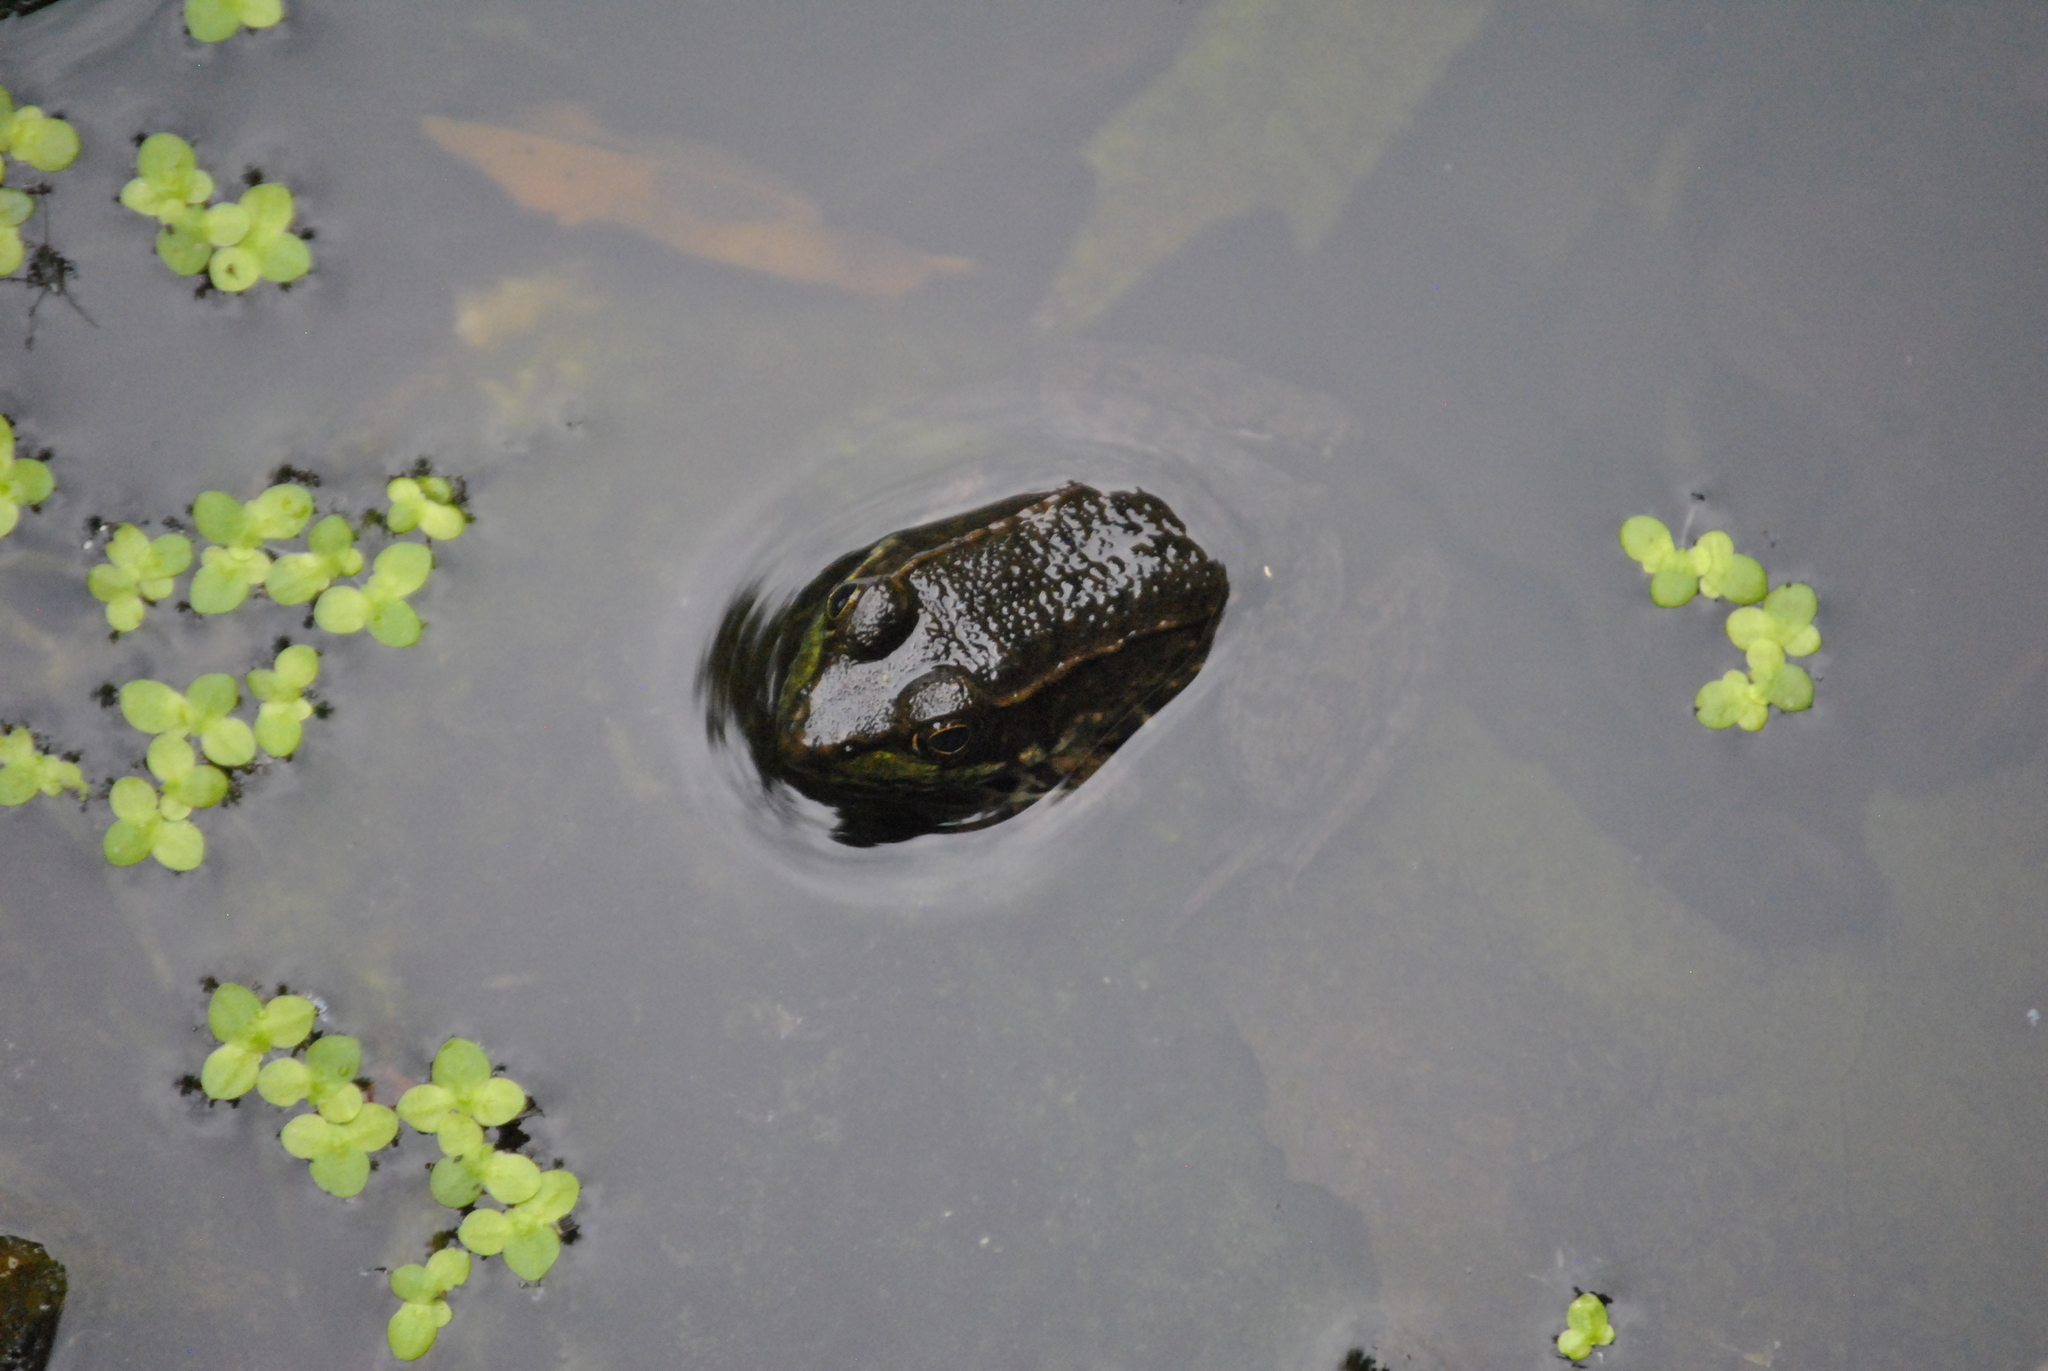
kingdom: Animalia
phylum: Chordata
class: Amphibia
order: Anura
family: Ranidae
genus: Lithobates
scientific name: Lithobates clamitans
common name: Green frog
